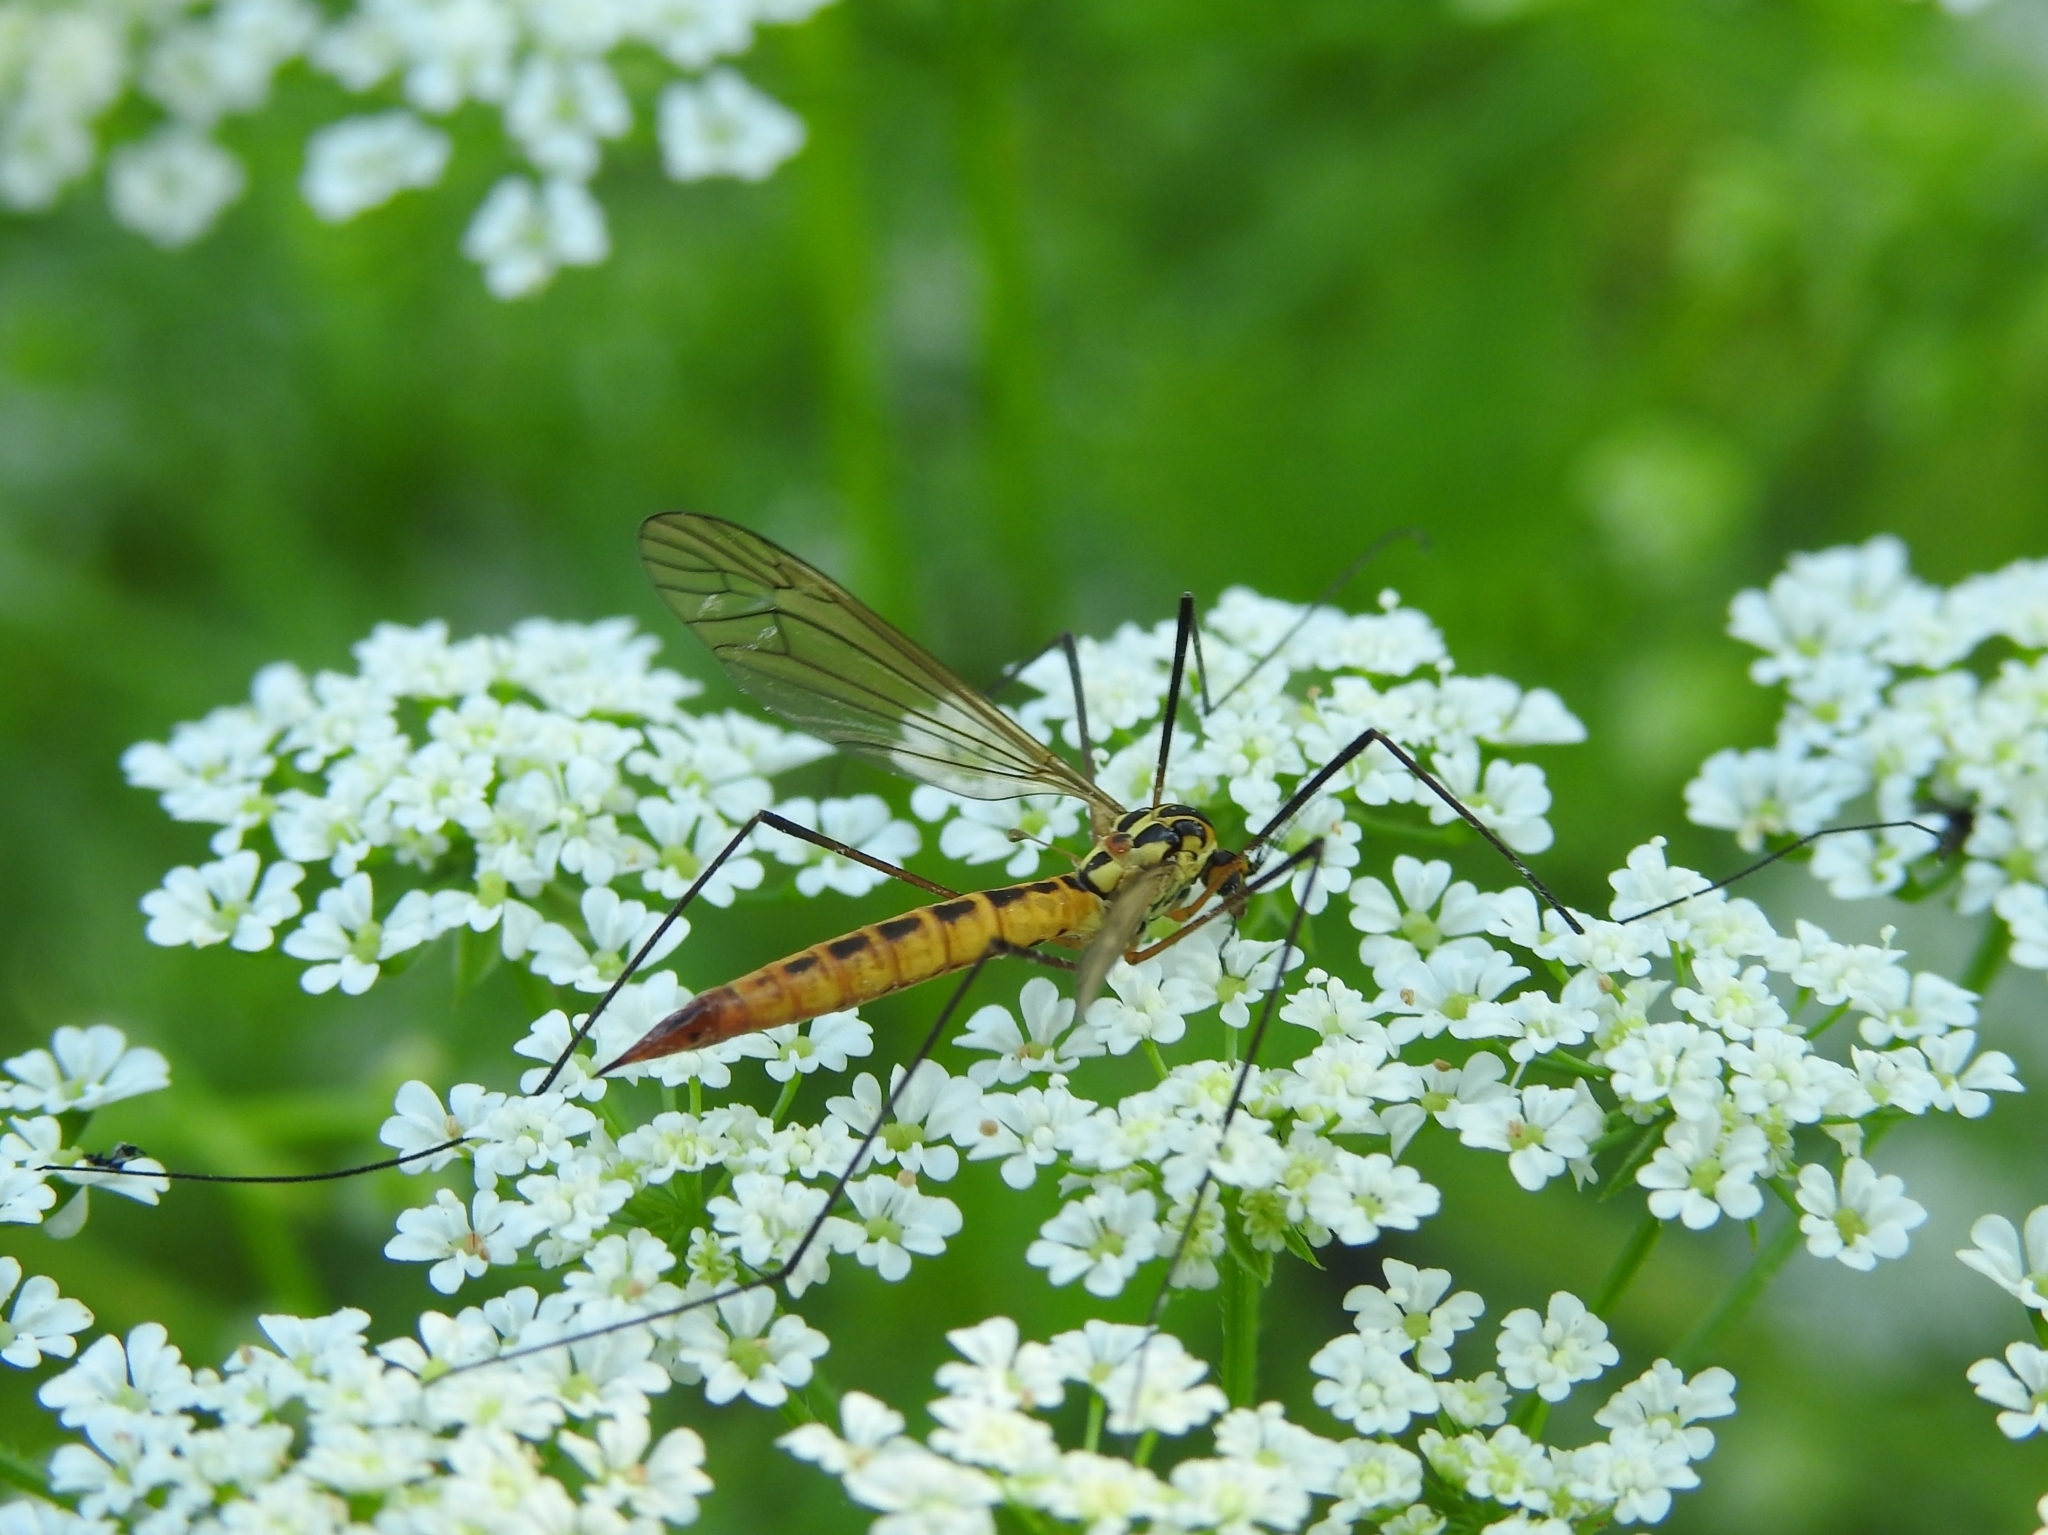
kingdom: Animalia
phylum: Arthropoda
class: Insecta
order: Diptera
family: Tipulidae
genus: Nephrotoma
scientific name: Nephrotoma flavescens
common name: Tiger cranefly
